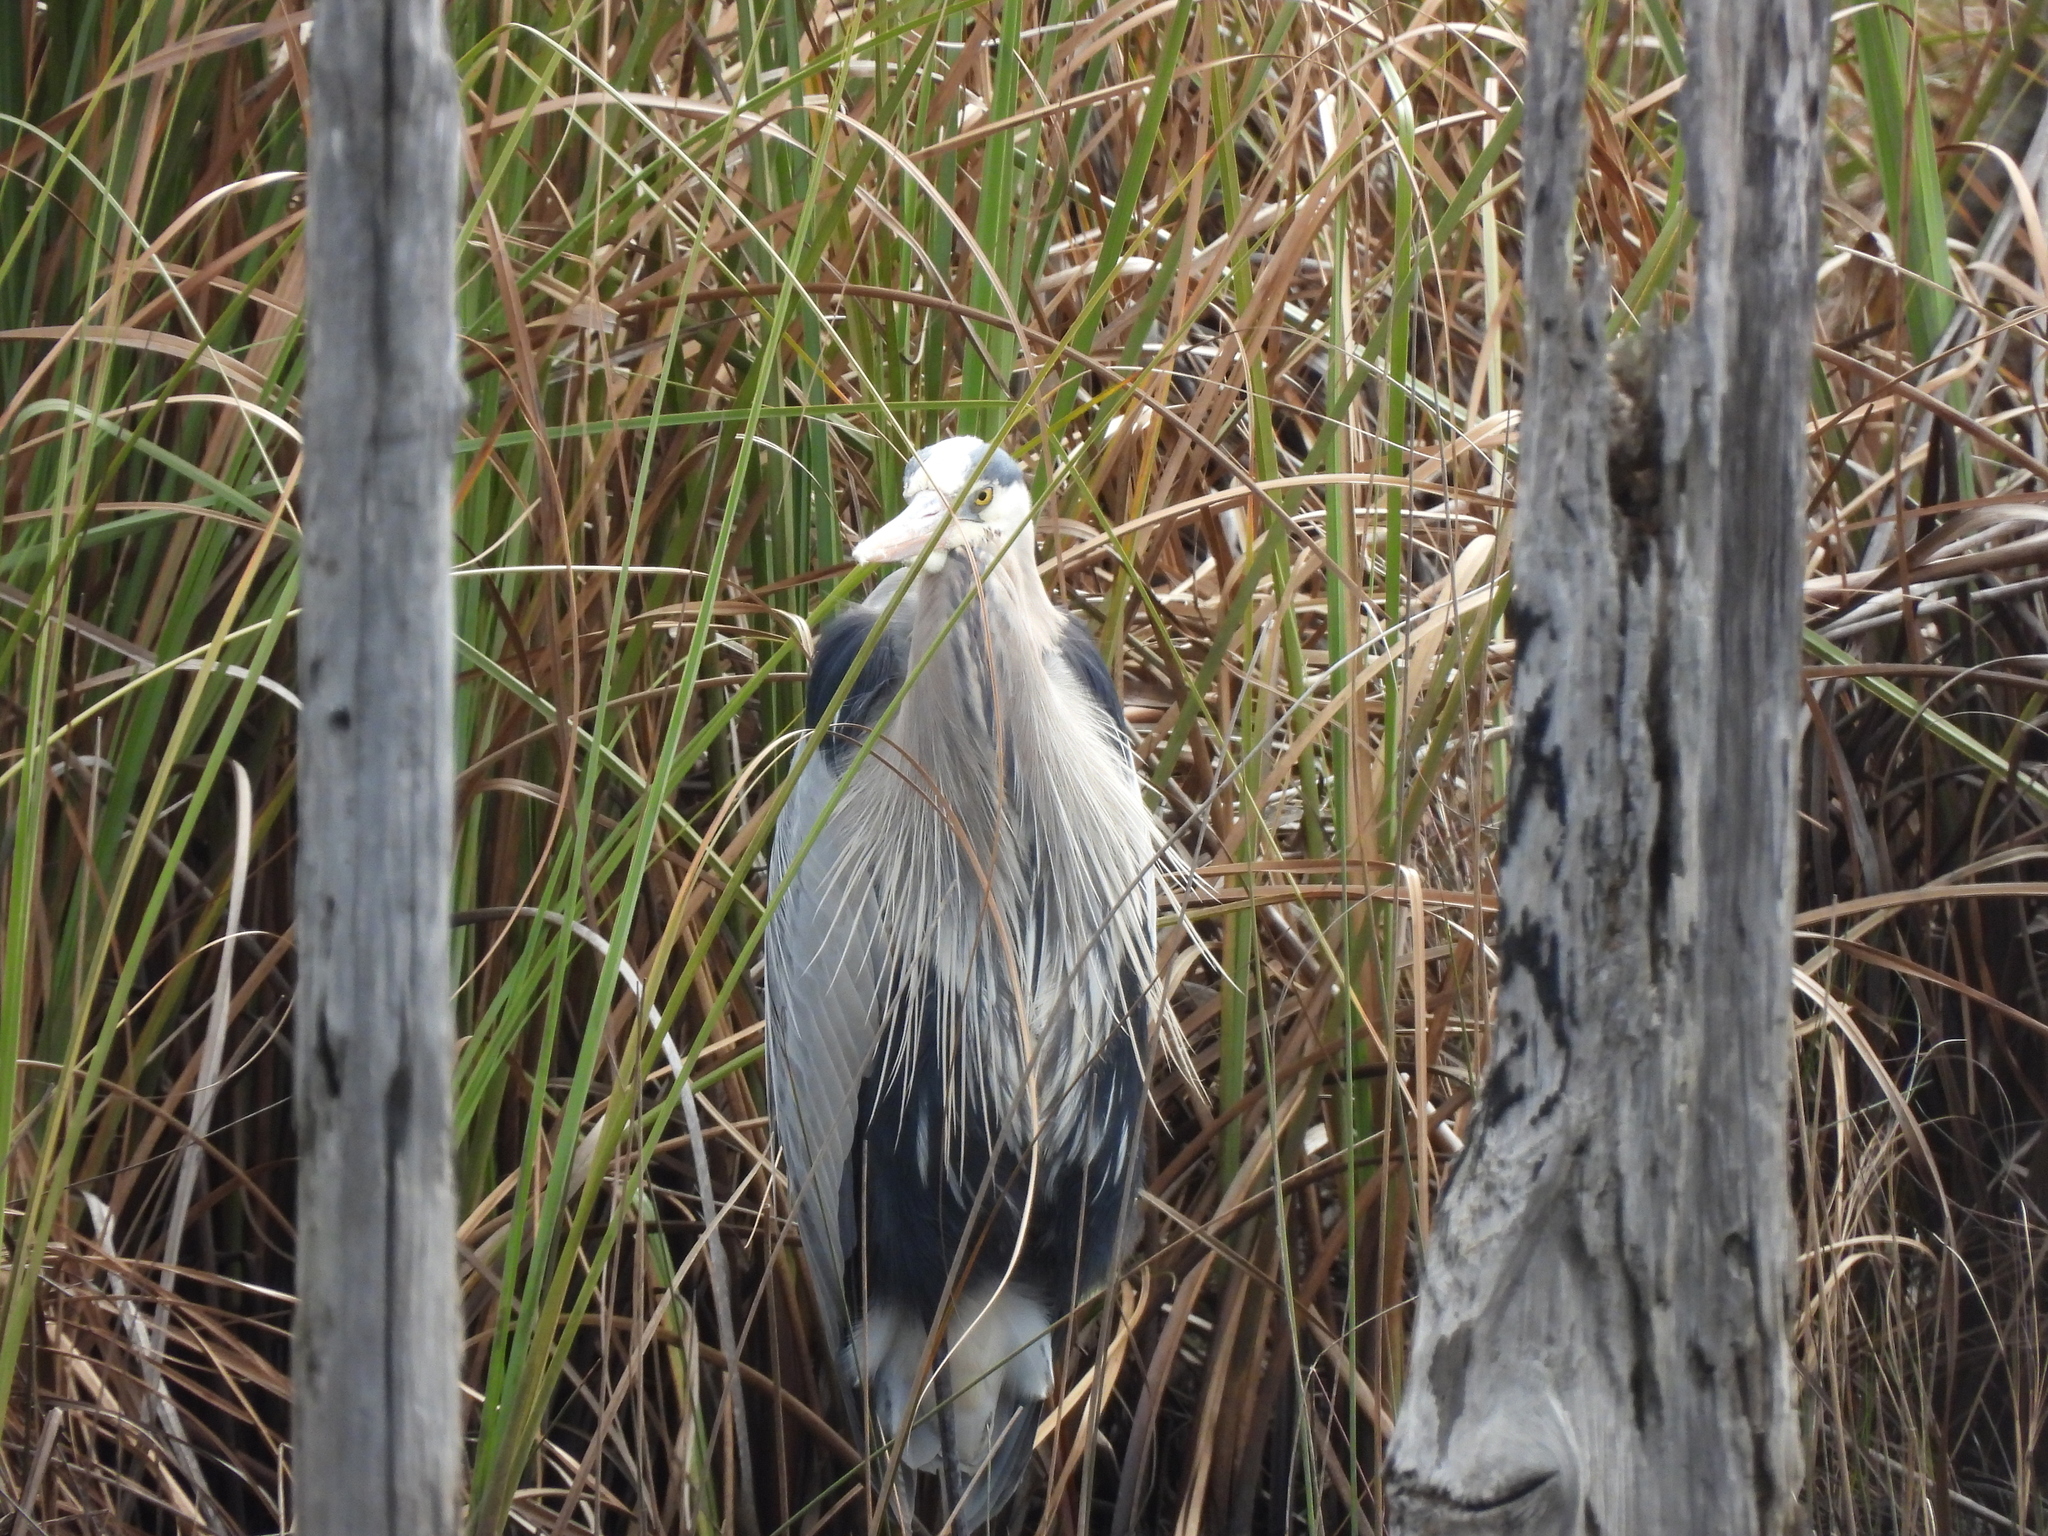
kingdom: Animalia
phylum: Chordata
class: Aves
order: Pelecaniformes
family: Ardeidae
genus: Ardea
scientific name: Ardea herodias
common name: Great blue heron
